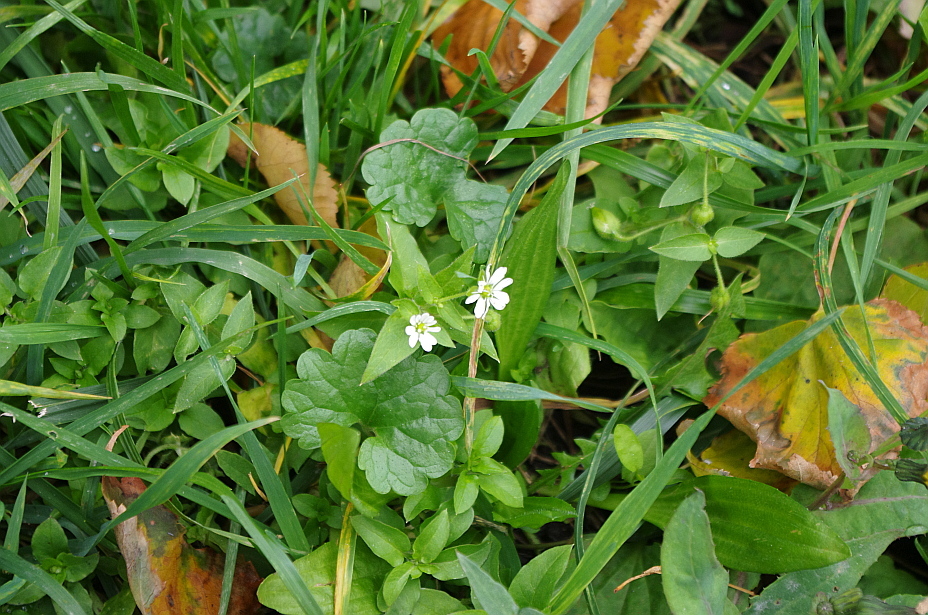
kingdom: Plantae
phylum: Tracheophyta
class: Magnoliopsida
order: Caryophyllales
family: Caryophyllaceae
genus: Stellaria
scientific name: Stellaria aquatica
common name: Water chickweed
